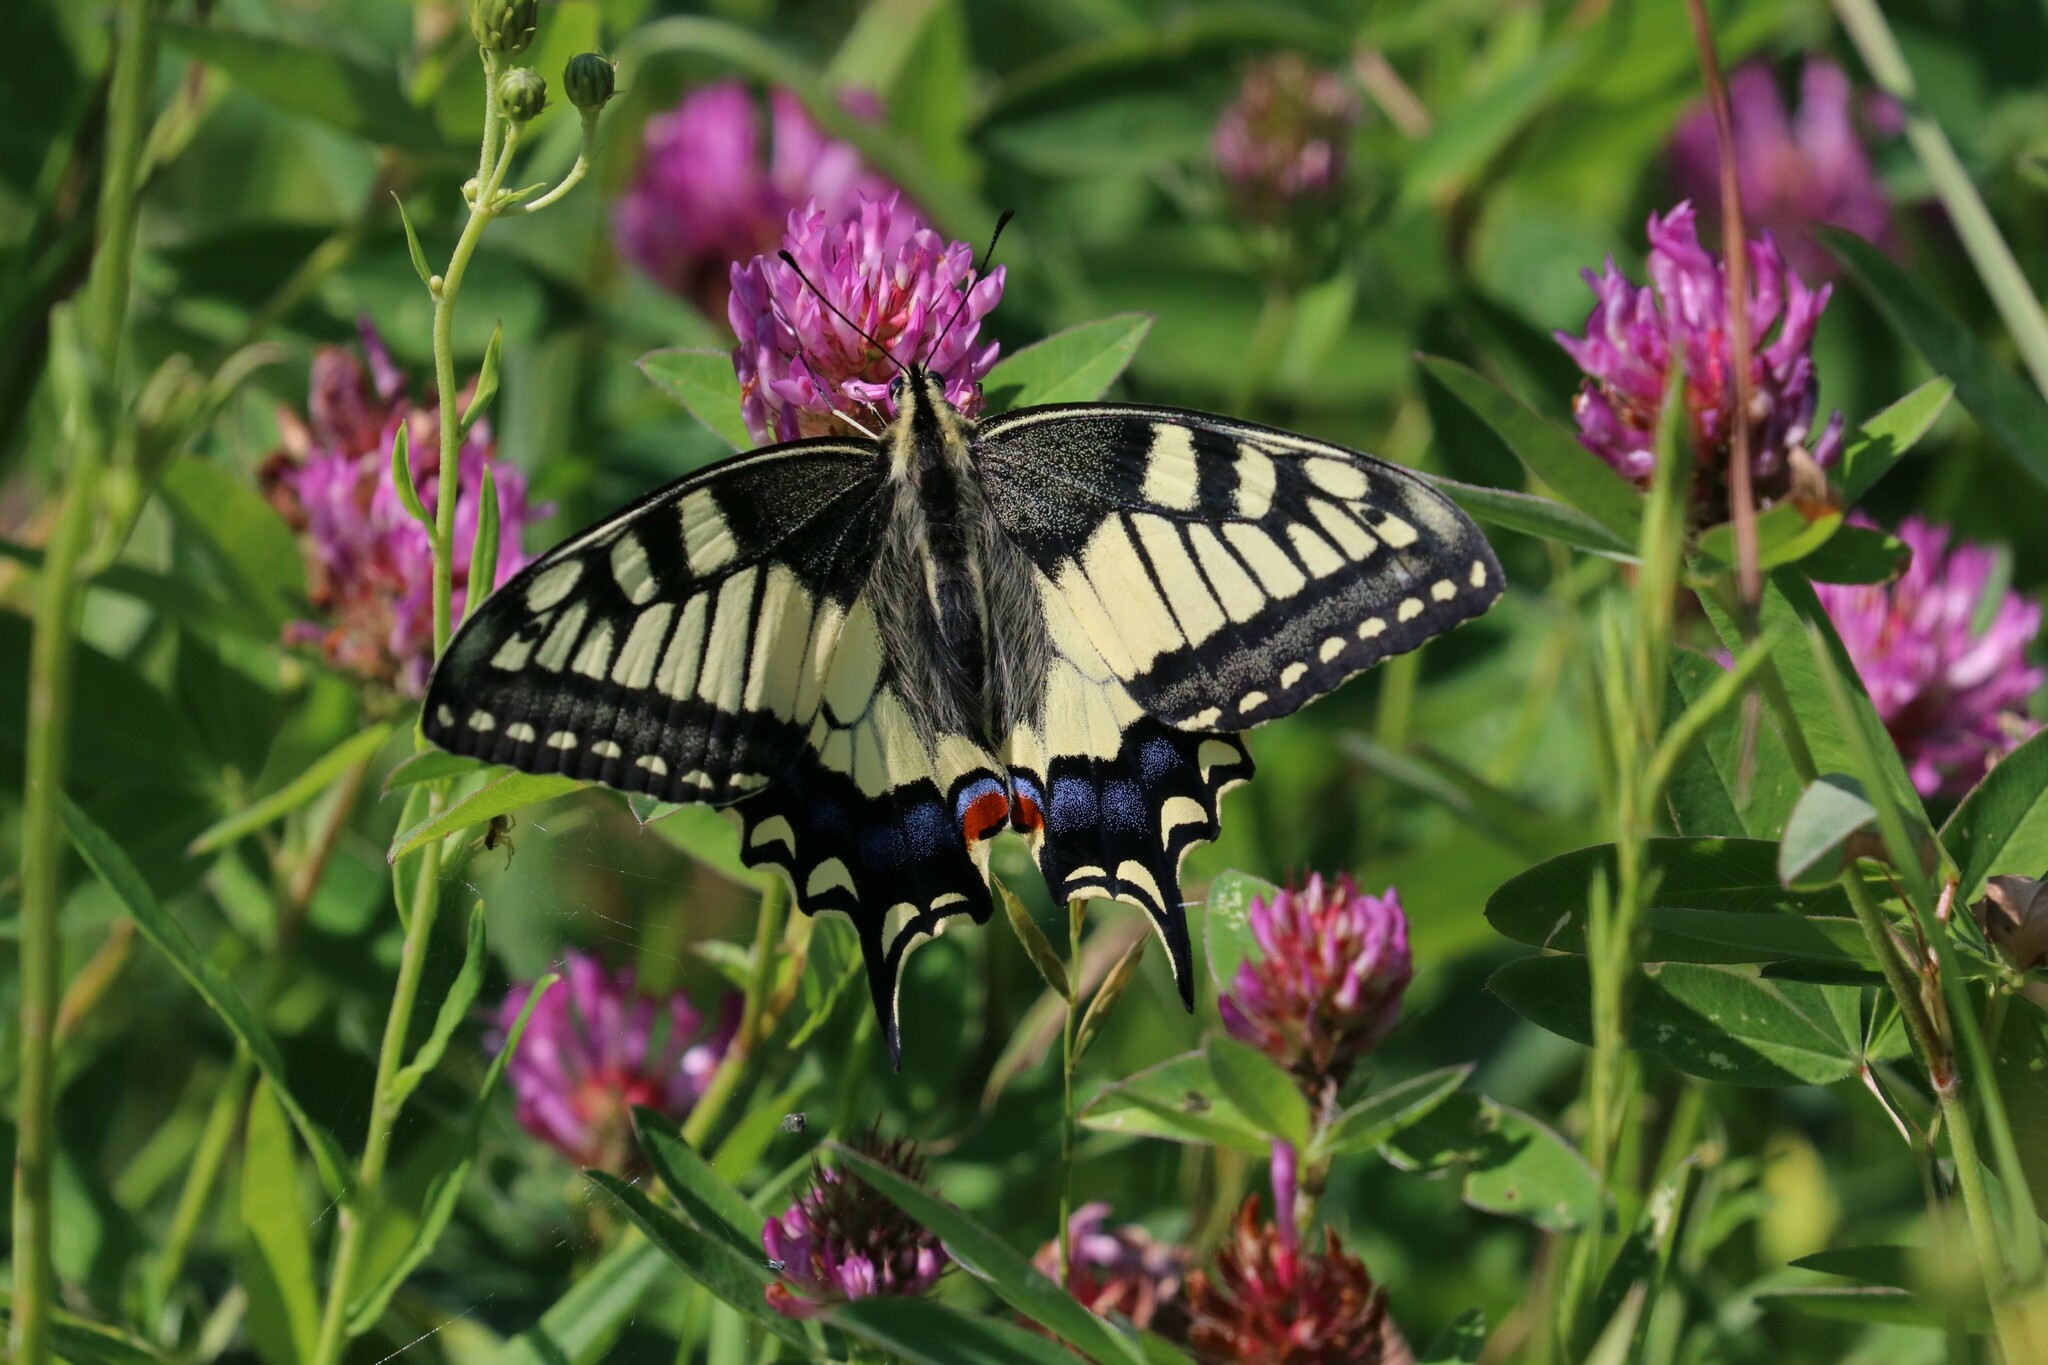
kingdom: Animalia
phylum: Arthropoda
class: Insecta
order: Lepidoptera
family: Papilionidae
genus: Papilio
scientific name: Papilio machaon
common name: Swallowtail
